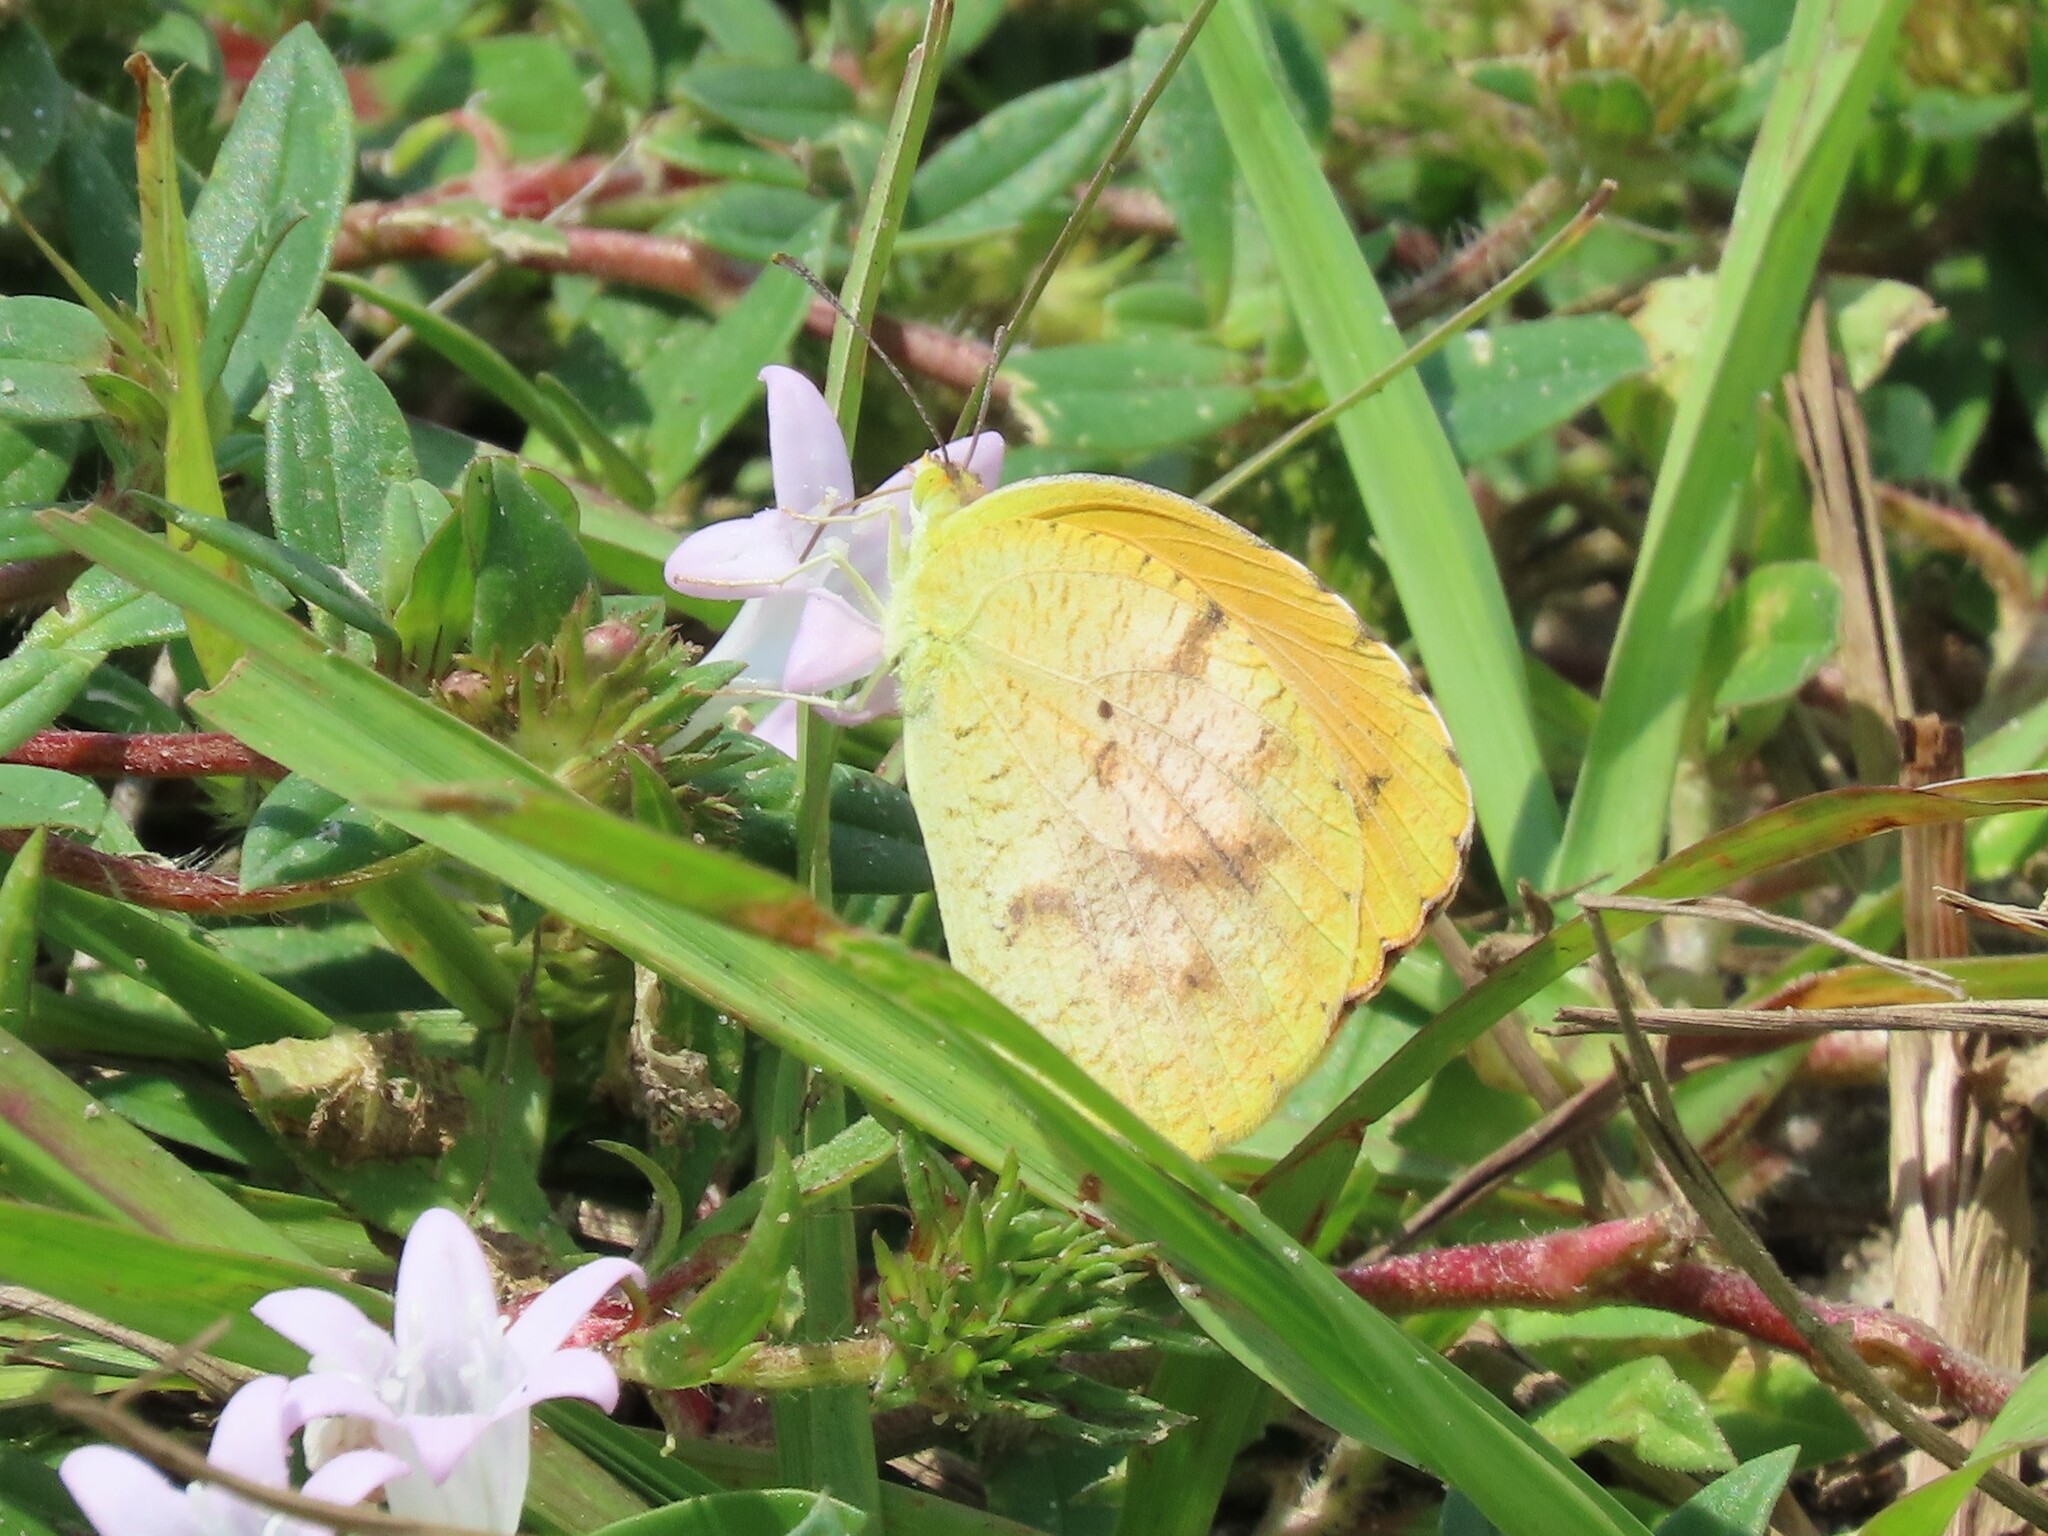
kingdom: Animalia
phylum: Arthropoda
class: Insecta
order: Lepidoptera
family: Pieridae
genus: Abaeis
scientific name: Abaeis nicippe
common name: Sleepy orange
